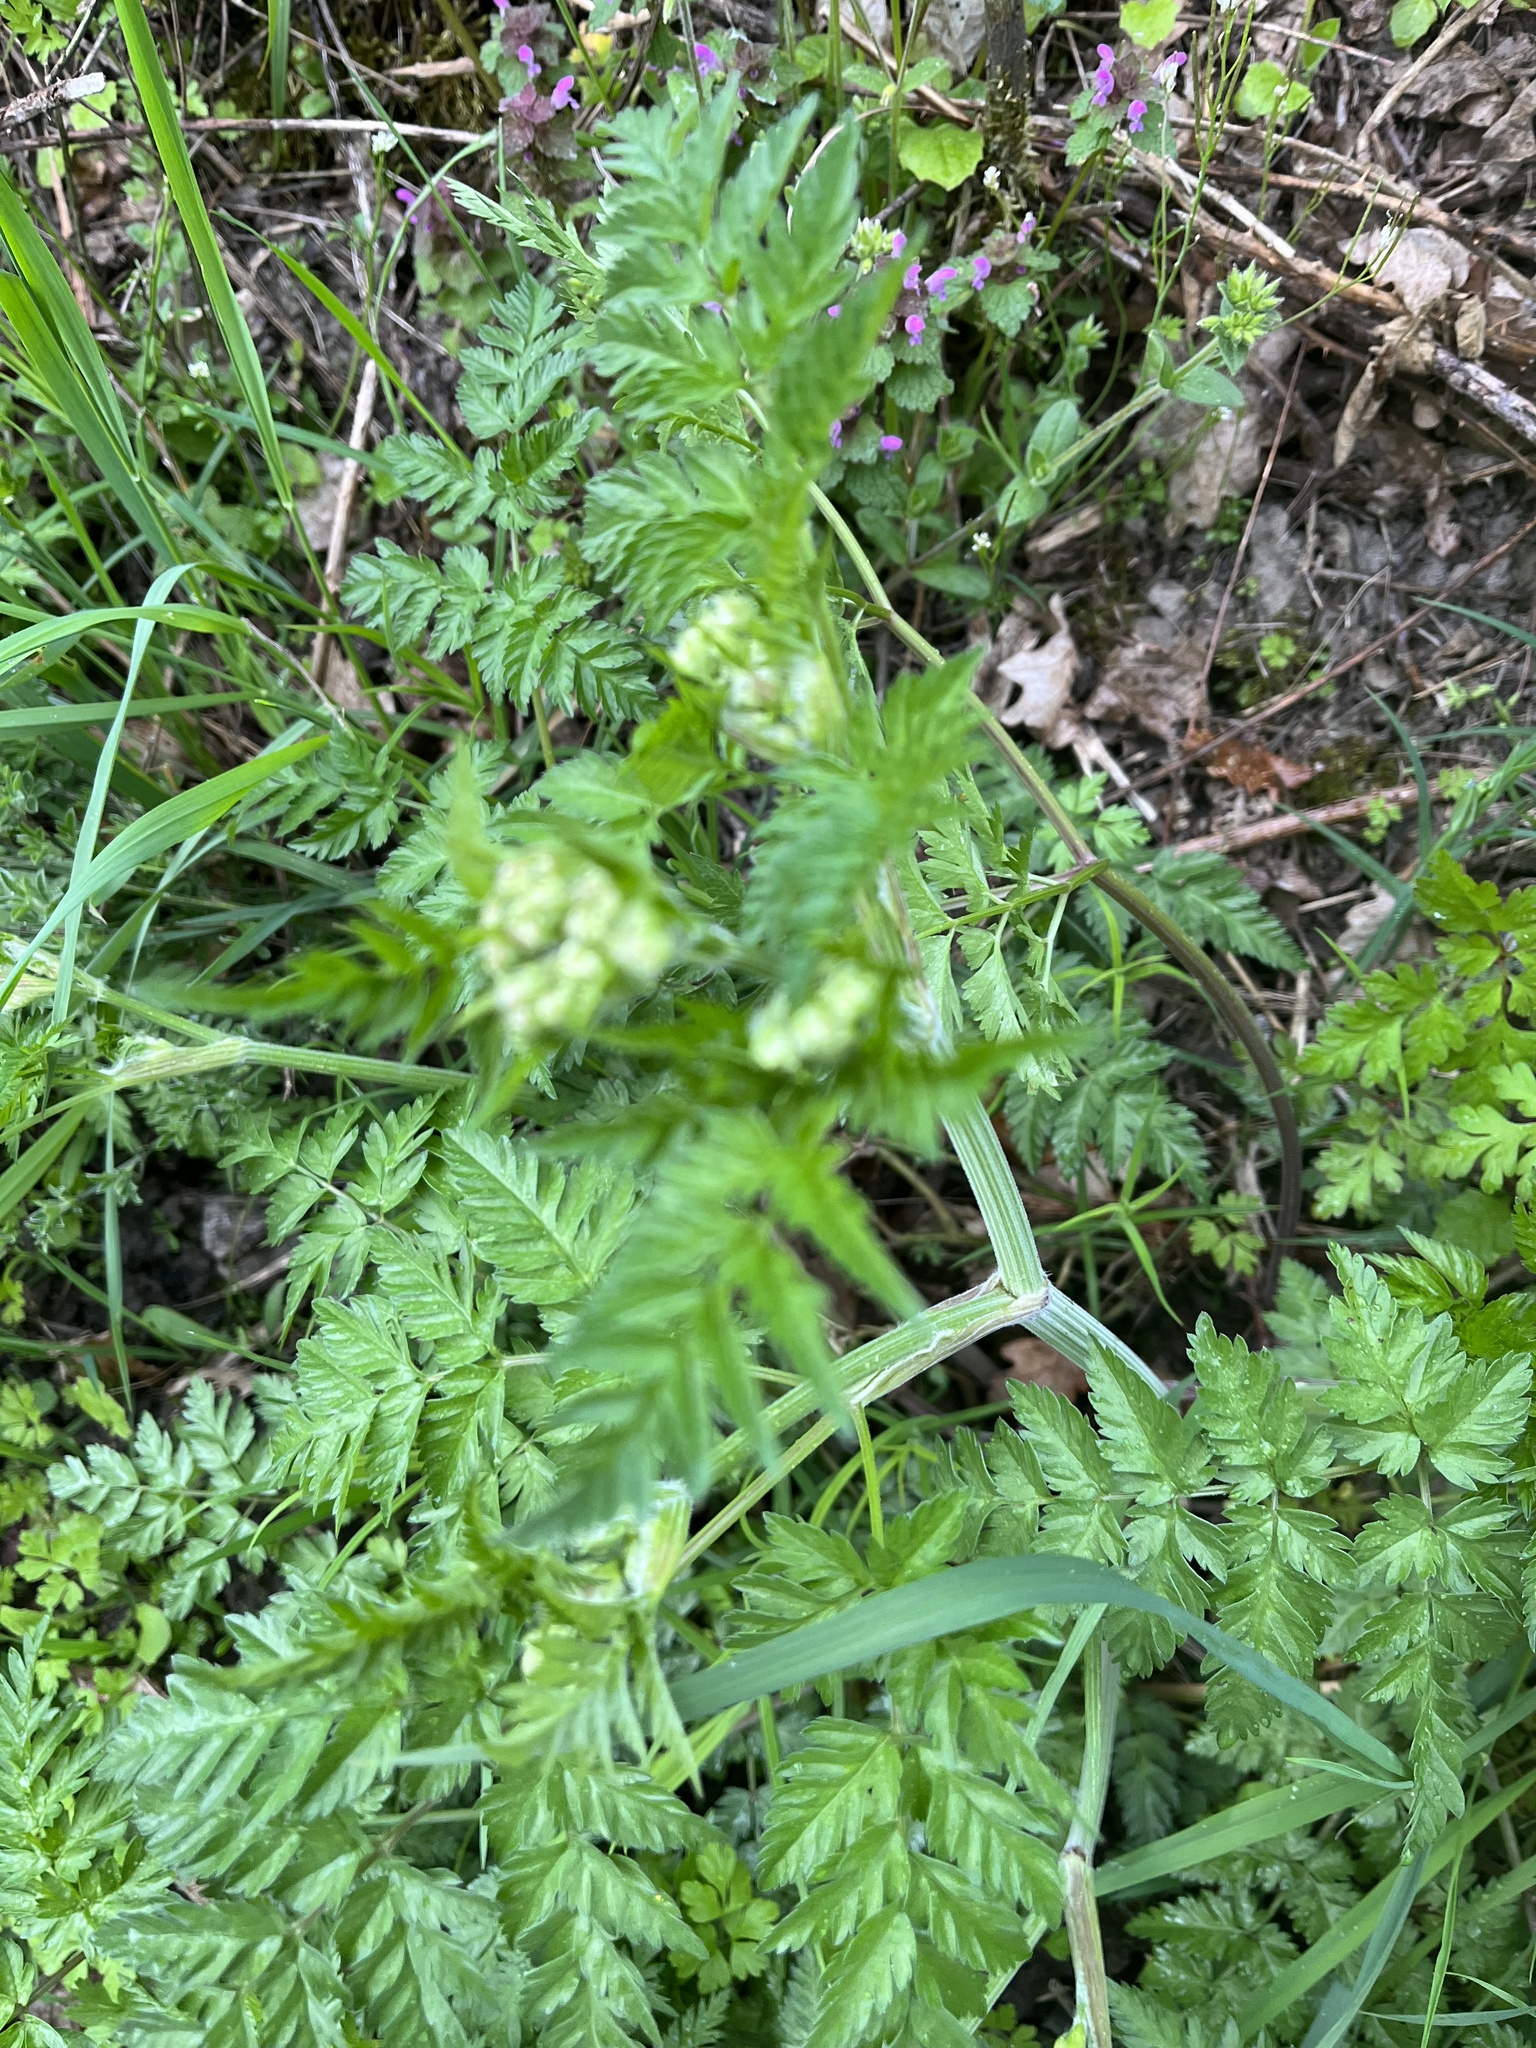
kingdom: Plantae
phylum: Tracheophyta
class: Magnoliopsida
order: Apiales
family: Apiaceae
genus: Anthriscus
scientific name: Anthriscus sylvestris
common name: Cow parsley
